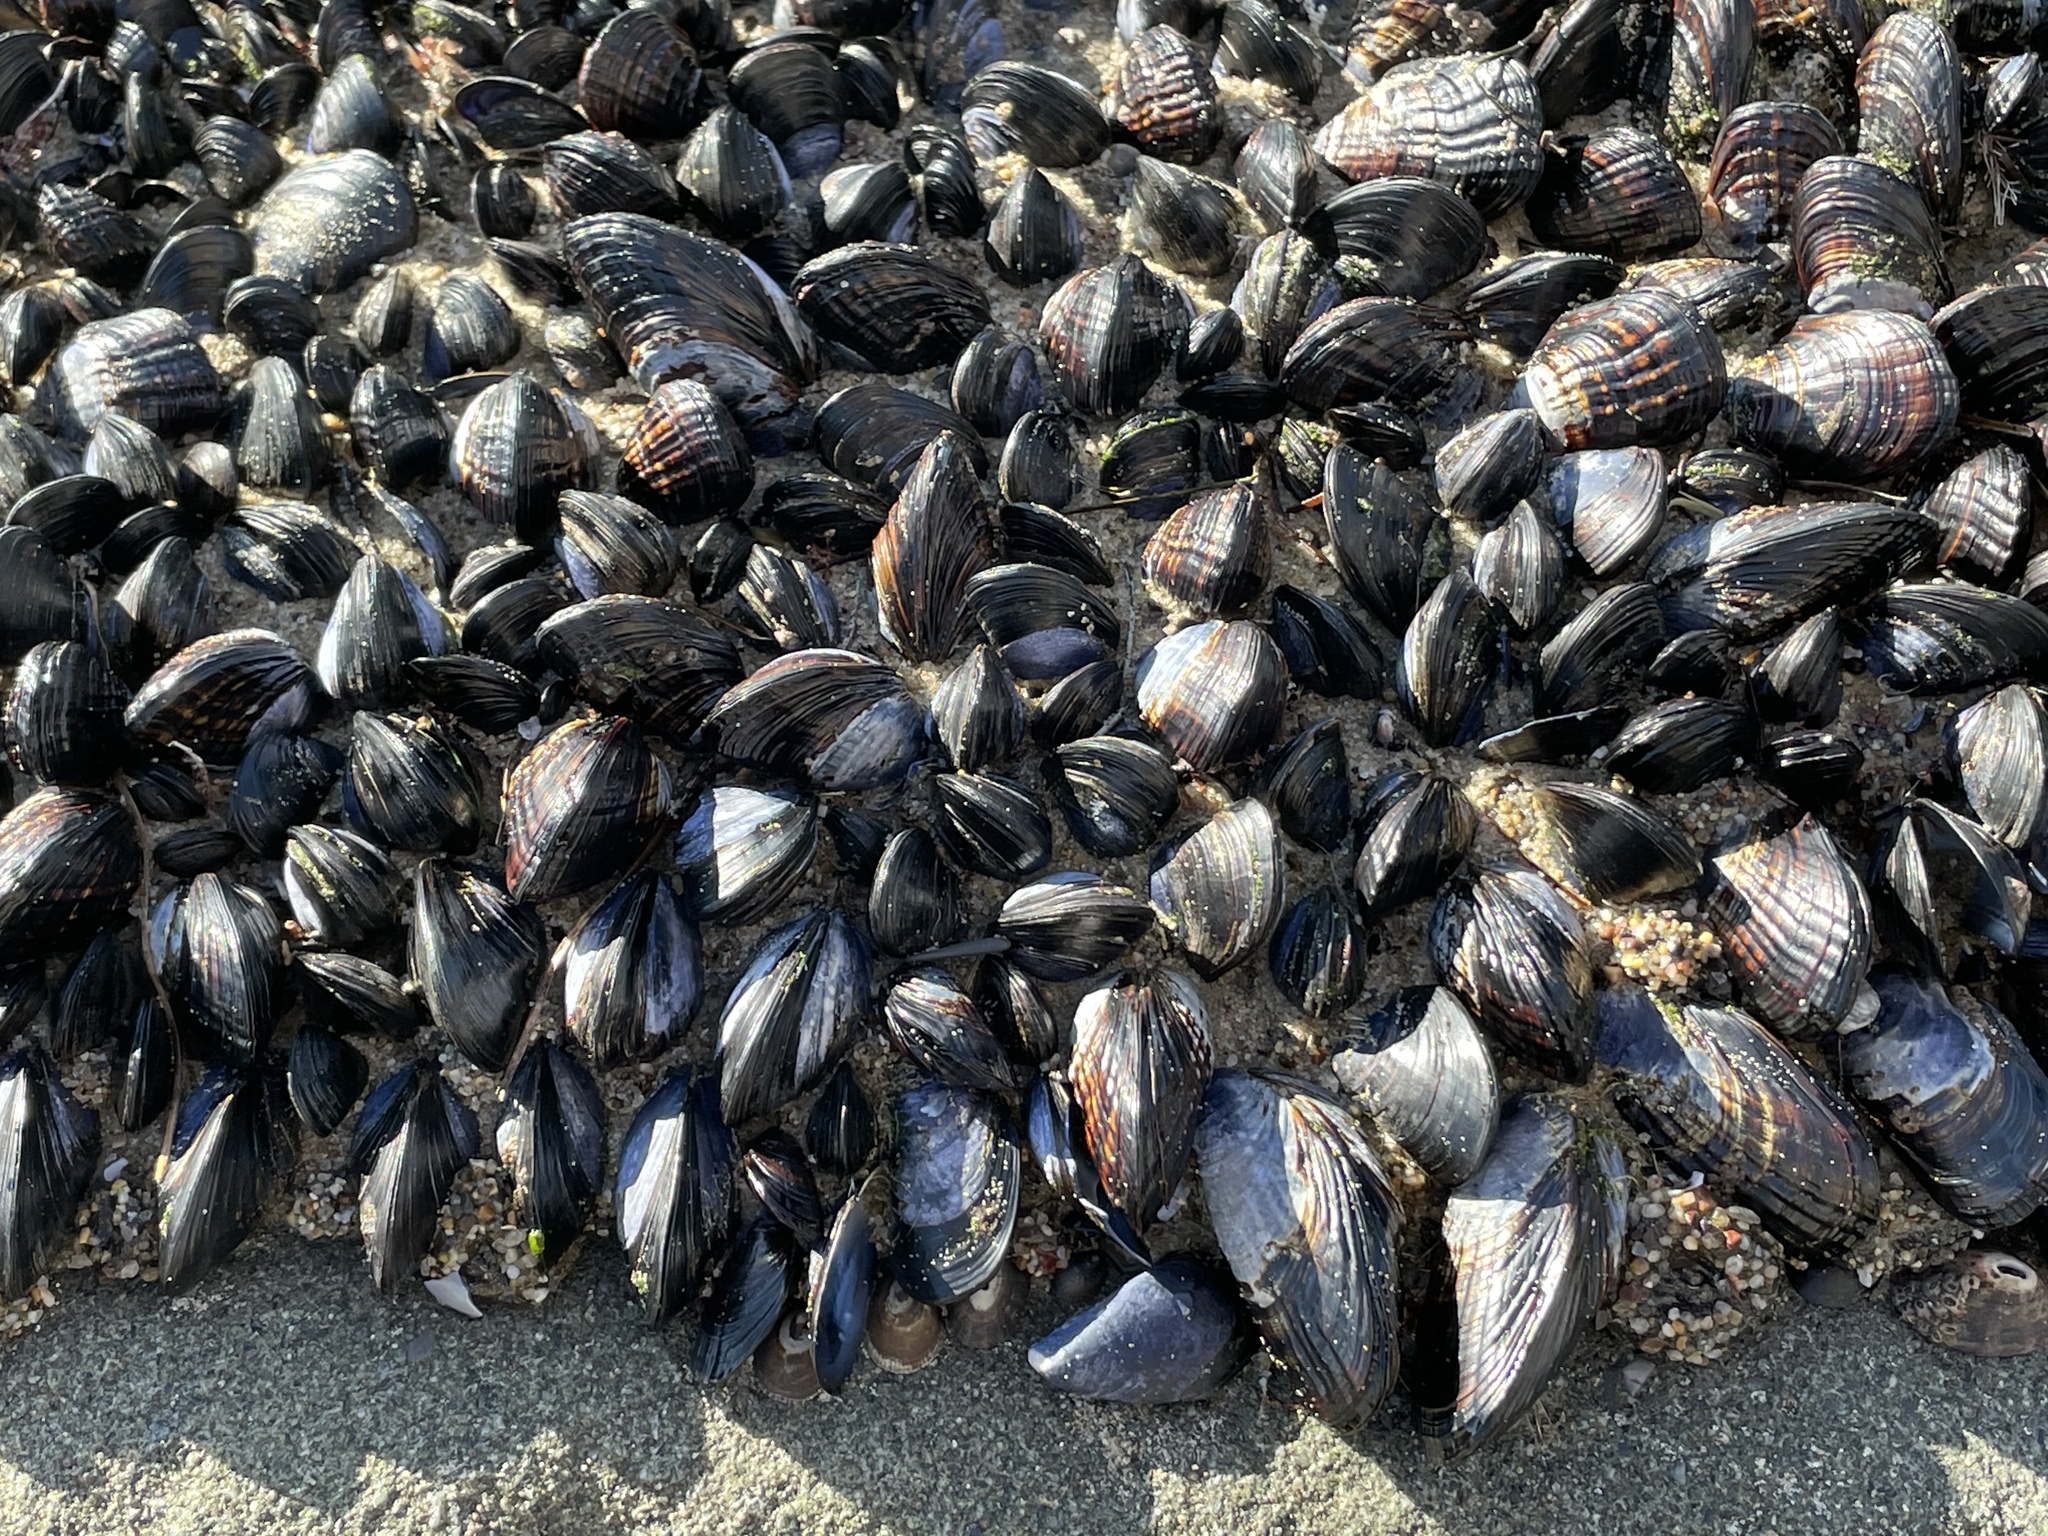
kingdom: Animalia
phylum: Mollusca
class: Bivalvia
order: Mytilida
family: Mytilidae
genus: Mytilus
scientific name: Mytilus californianus
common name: California mussel
